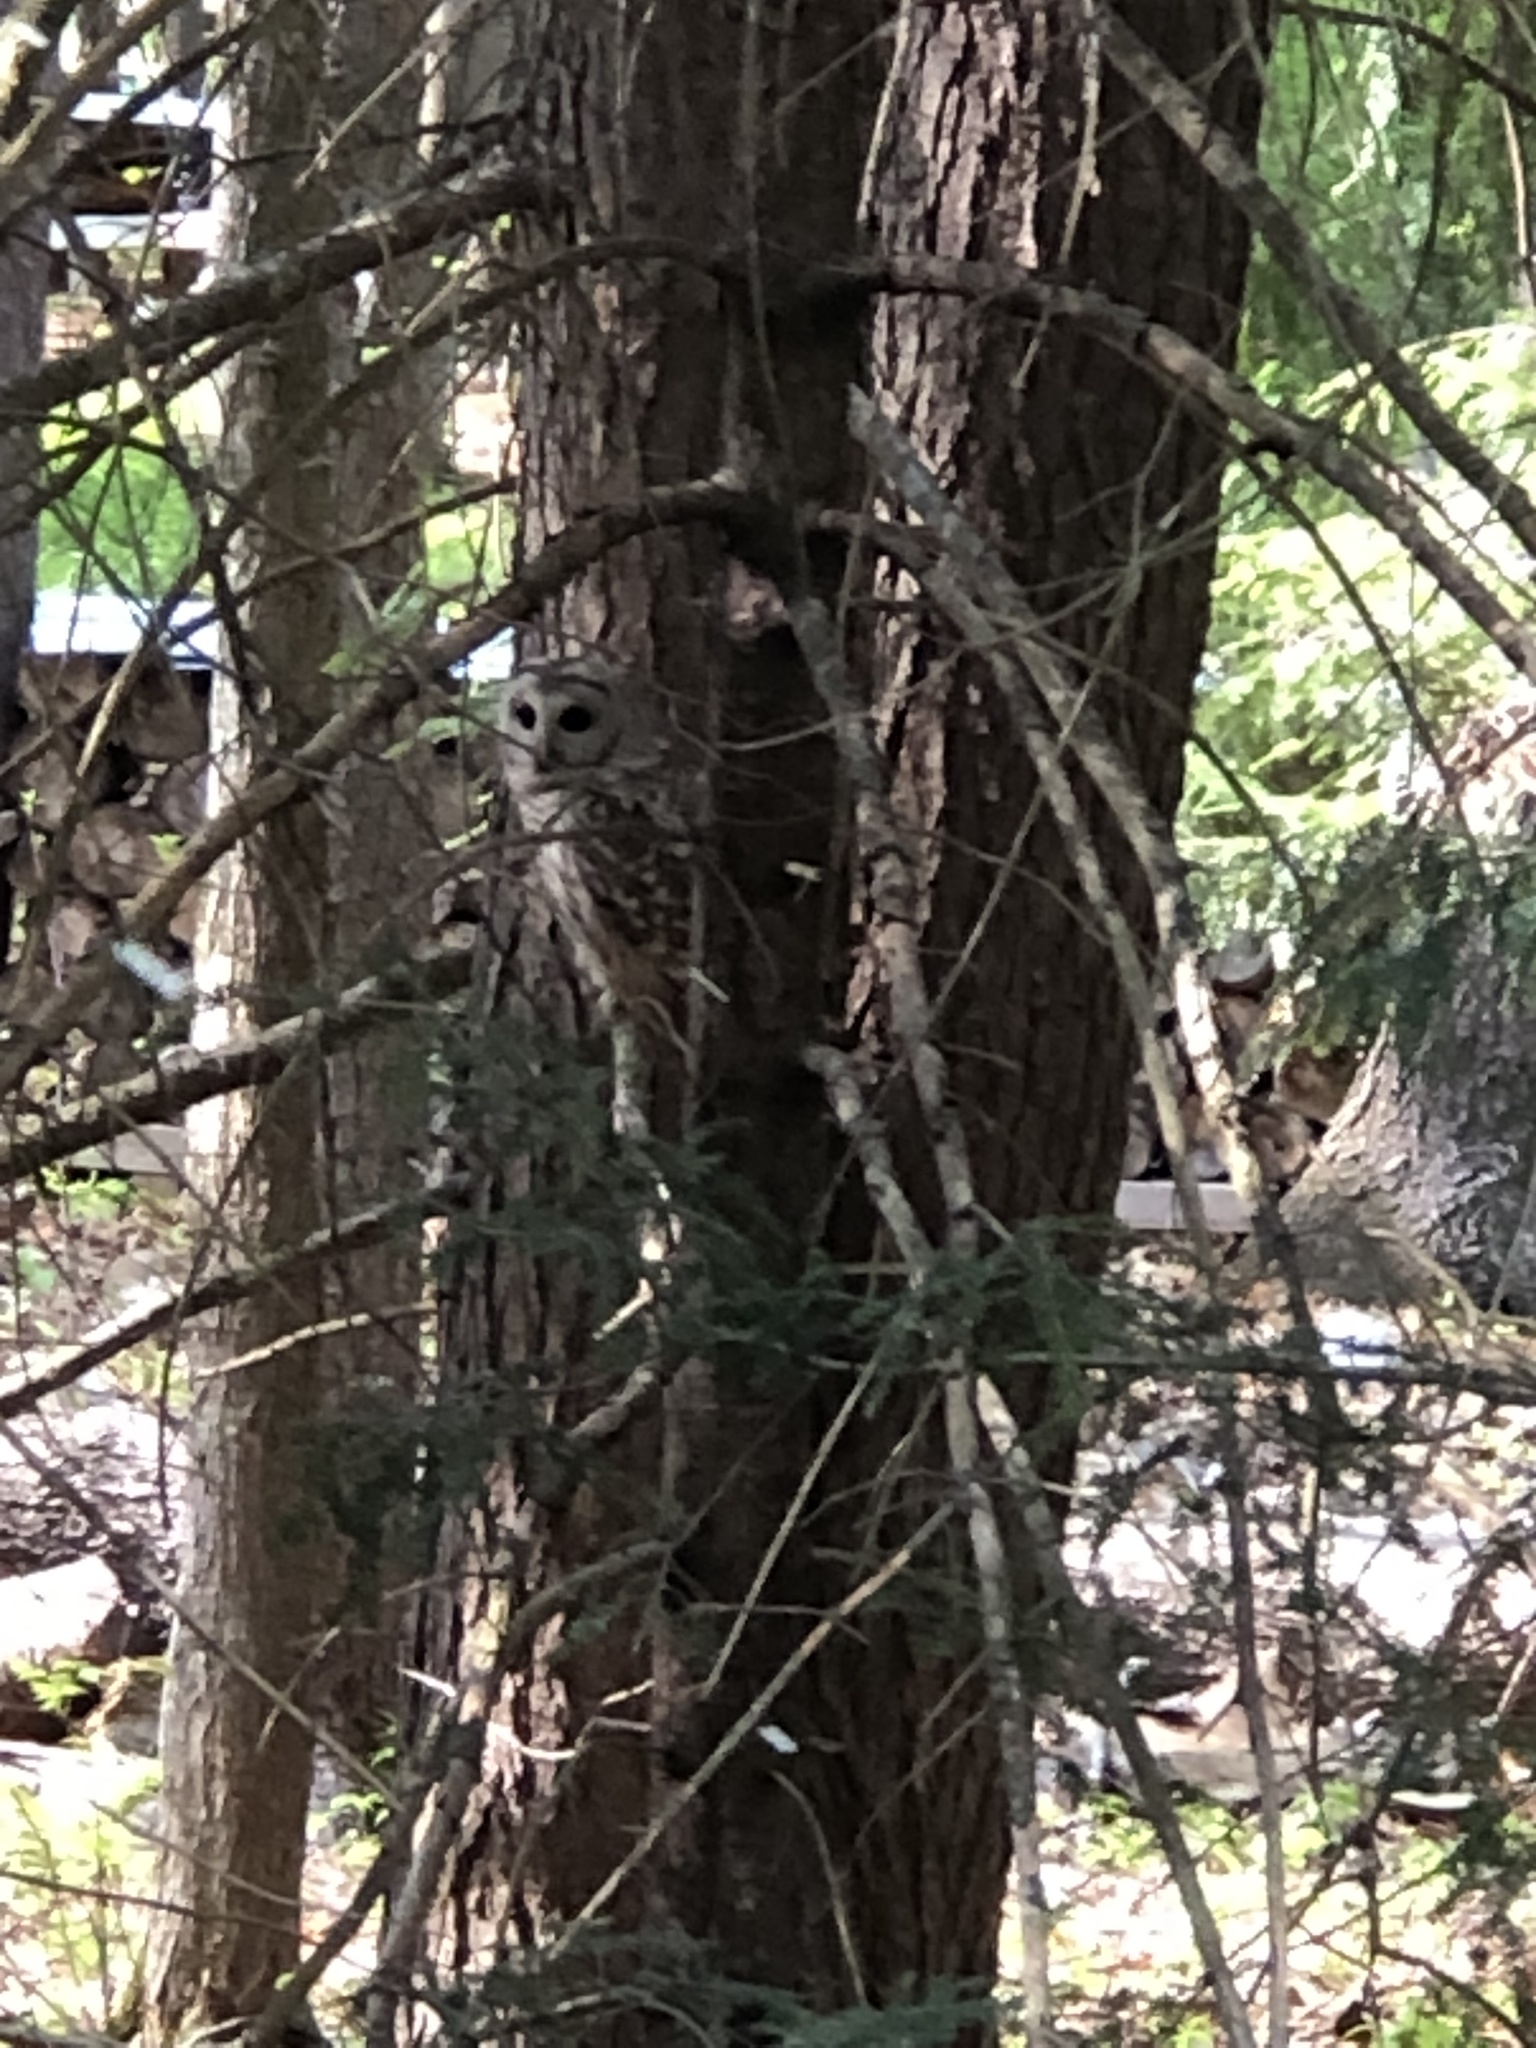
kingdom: Animalia
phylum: Chordata
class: Aves
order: Strigiformes
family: Strigidae
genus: Strix
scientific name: Strix varia
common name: Barred owl
